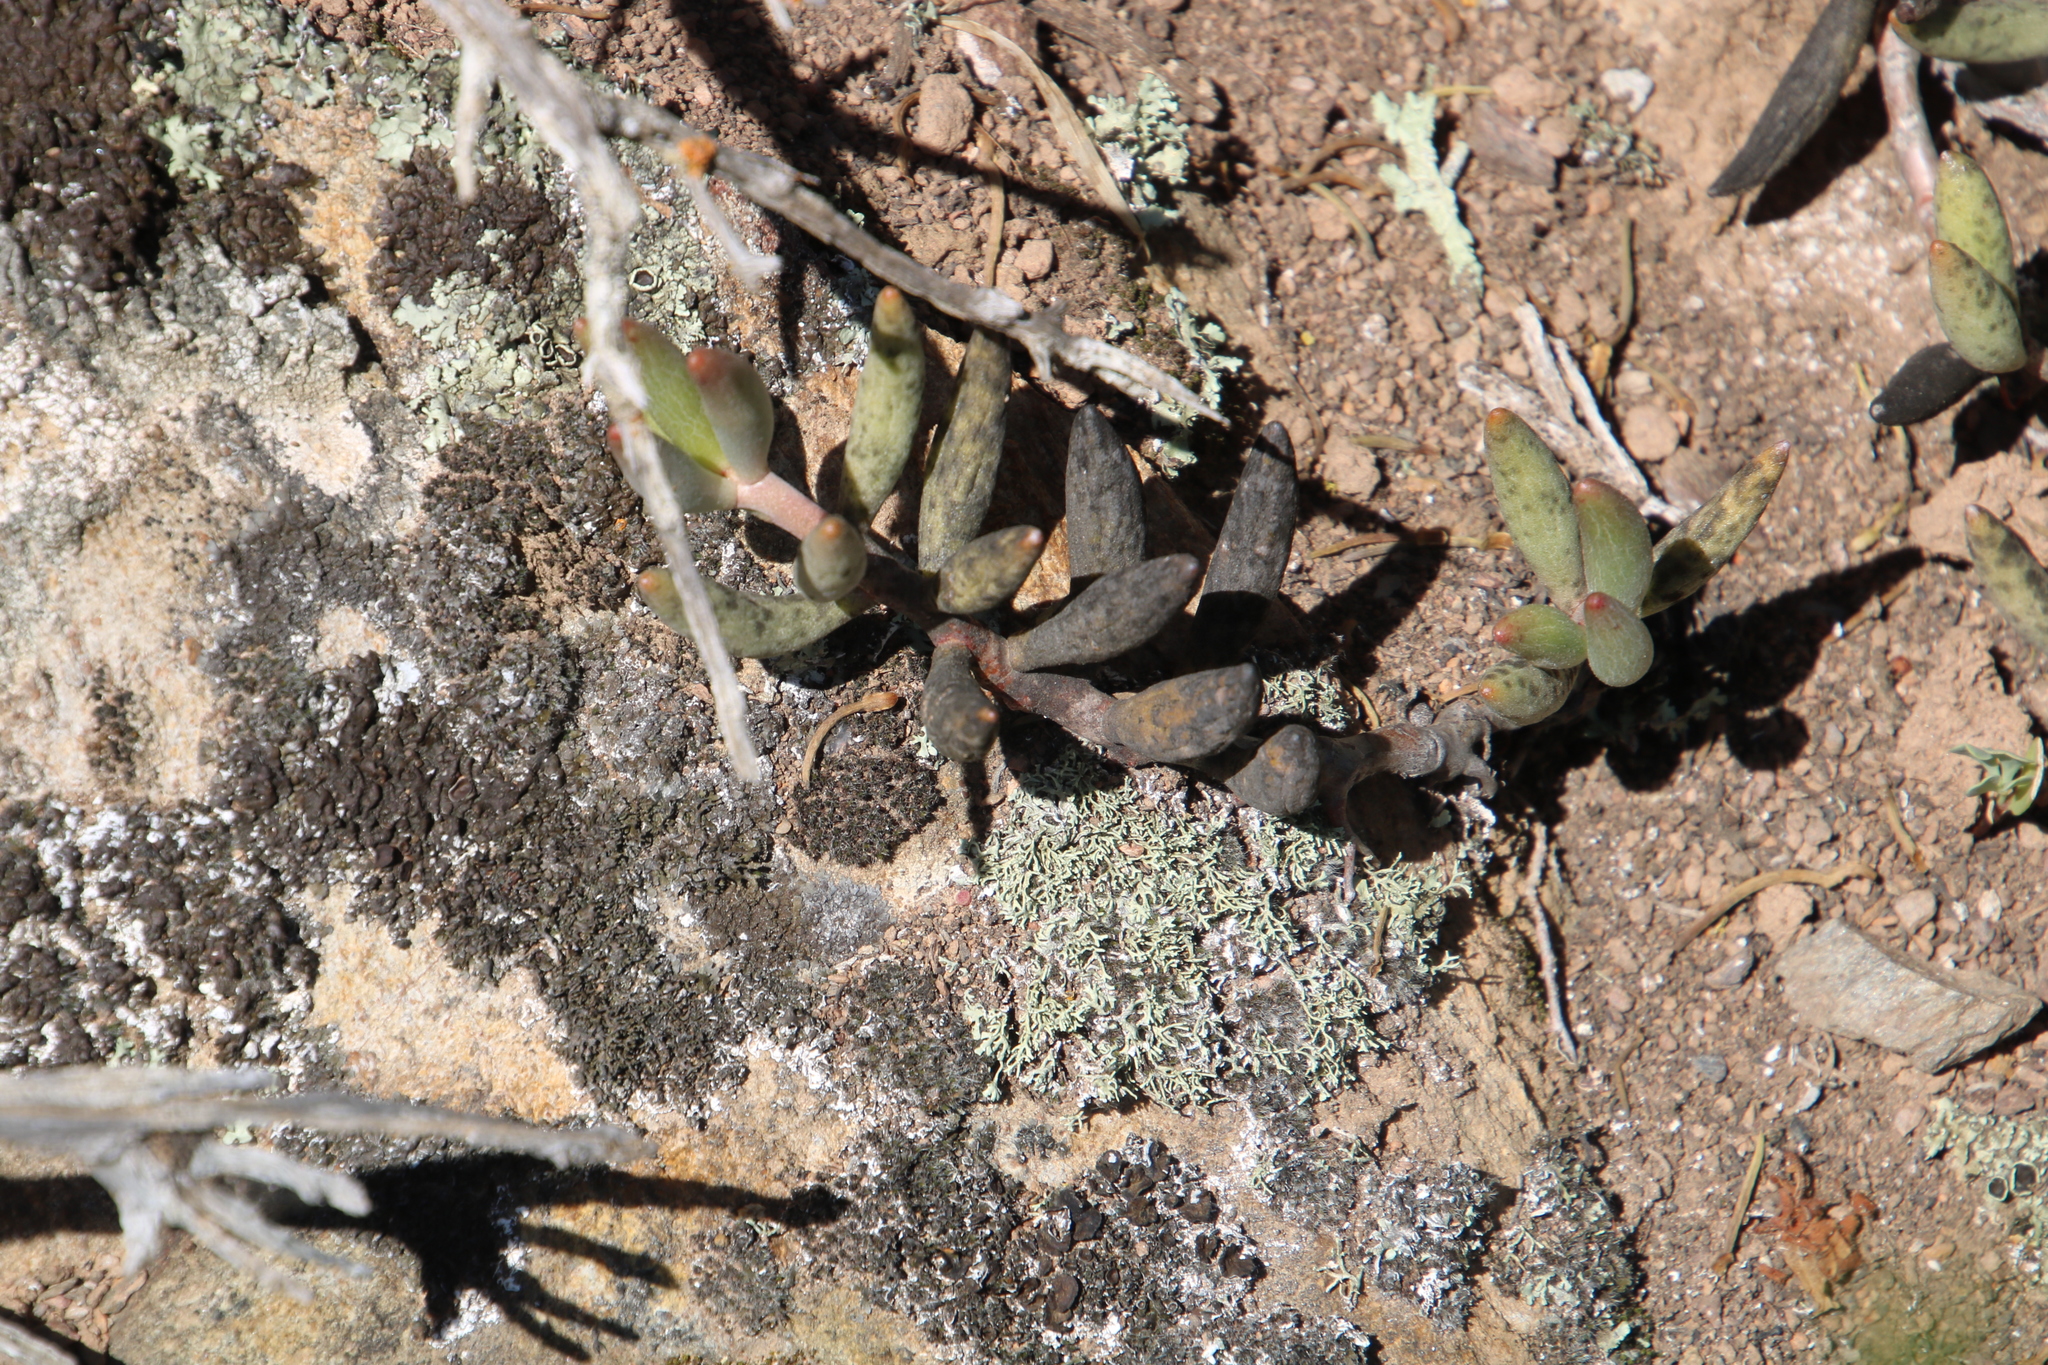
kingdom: Plantae
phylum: Tracheophyta
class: Magnoliopsida
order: Saxifragales
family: Crassulaceae
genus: Adromischus
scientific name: Adromischus filicaulis
